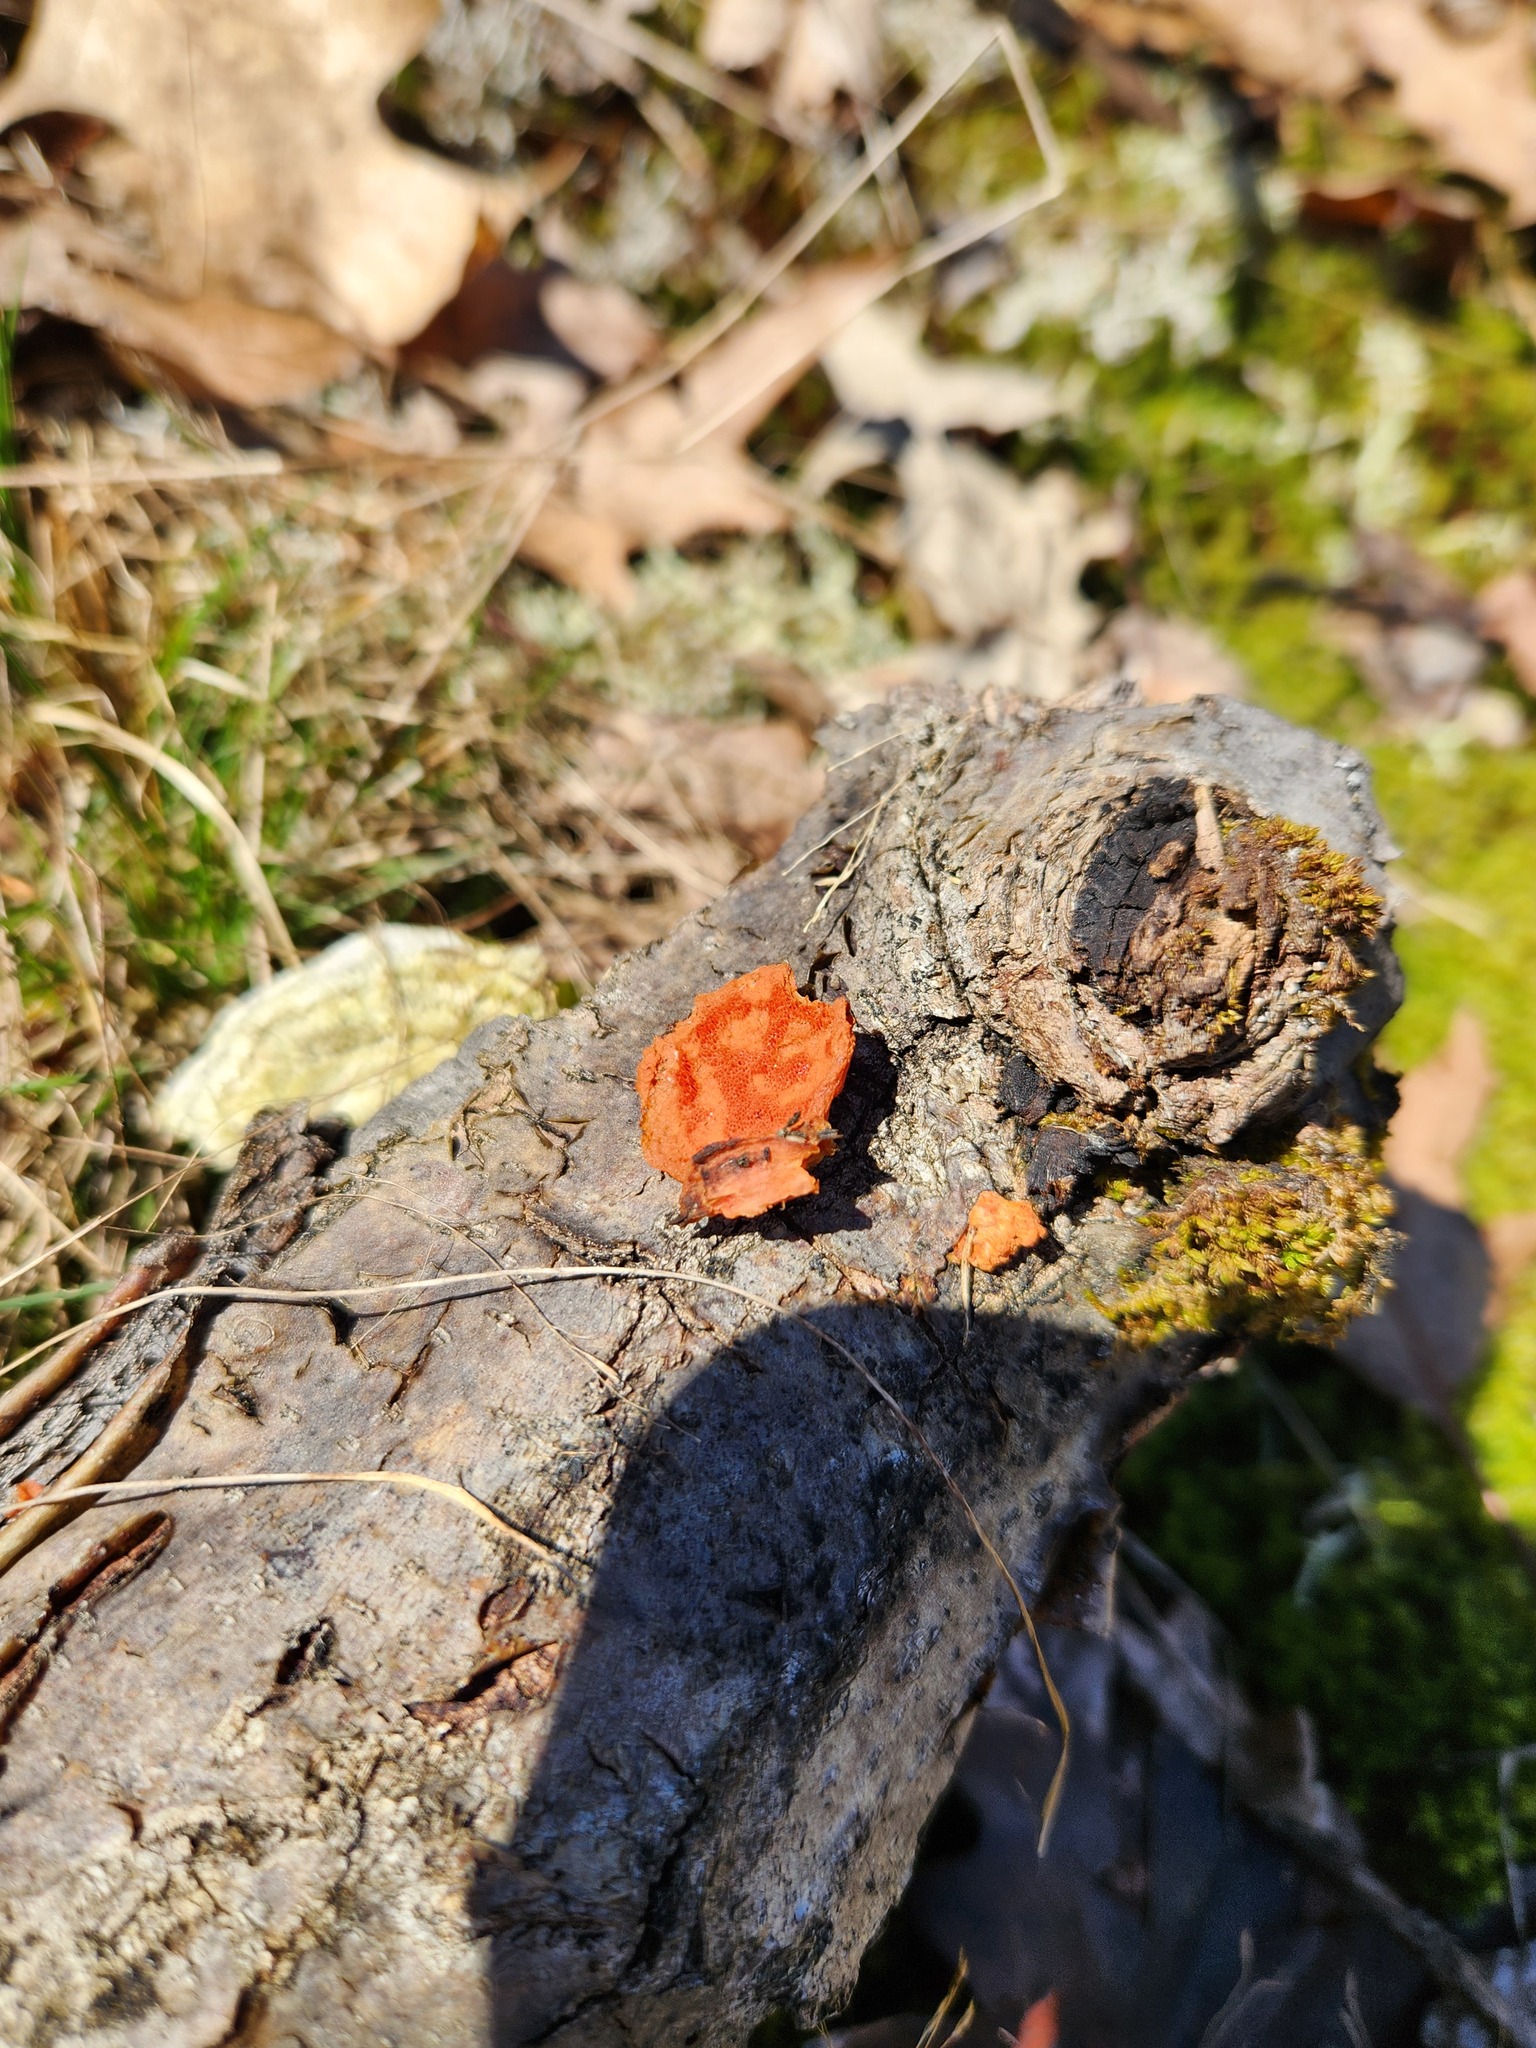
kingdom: Fungi
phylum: Basidiomycota
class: Agaricomycetes
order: Polyporales
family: Polyporaceae
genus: Trametes
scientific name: Trametes cinnabarina
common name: Northern cinnabar polypore
